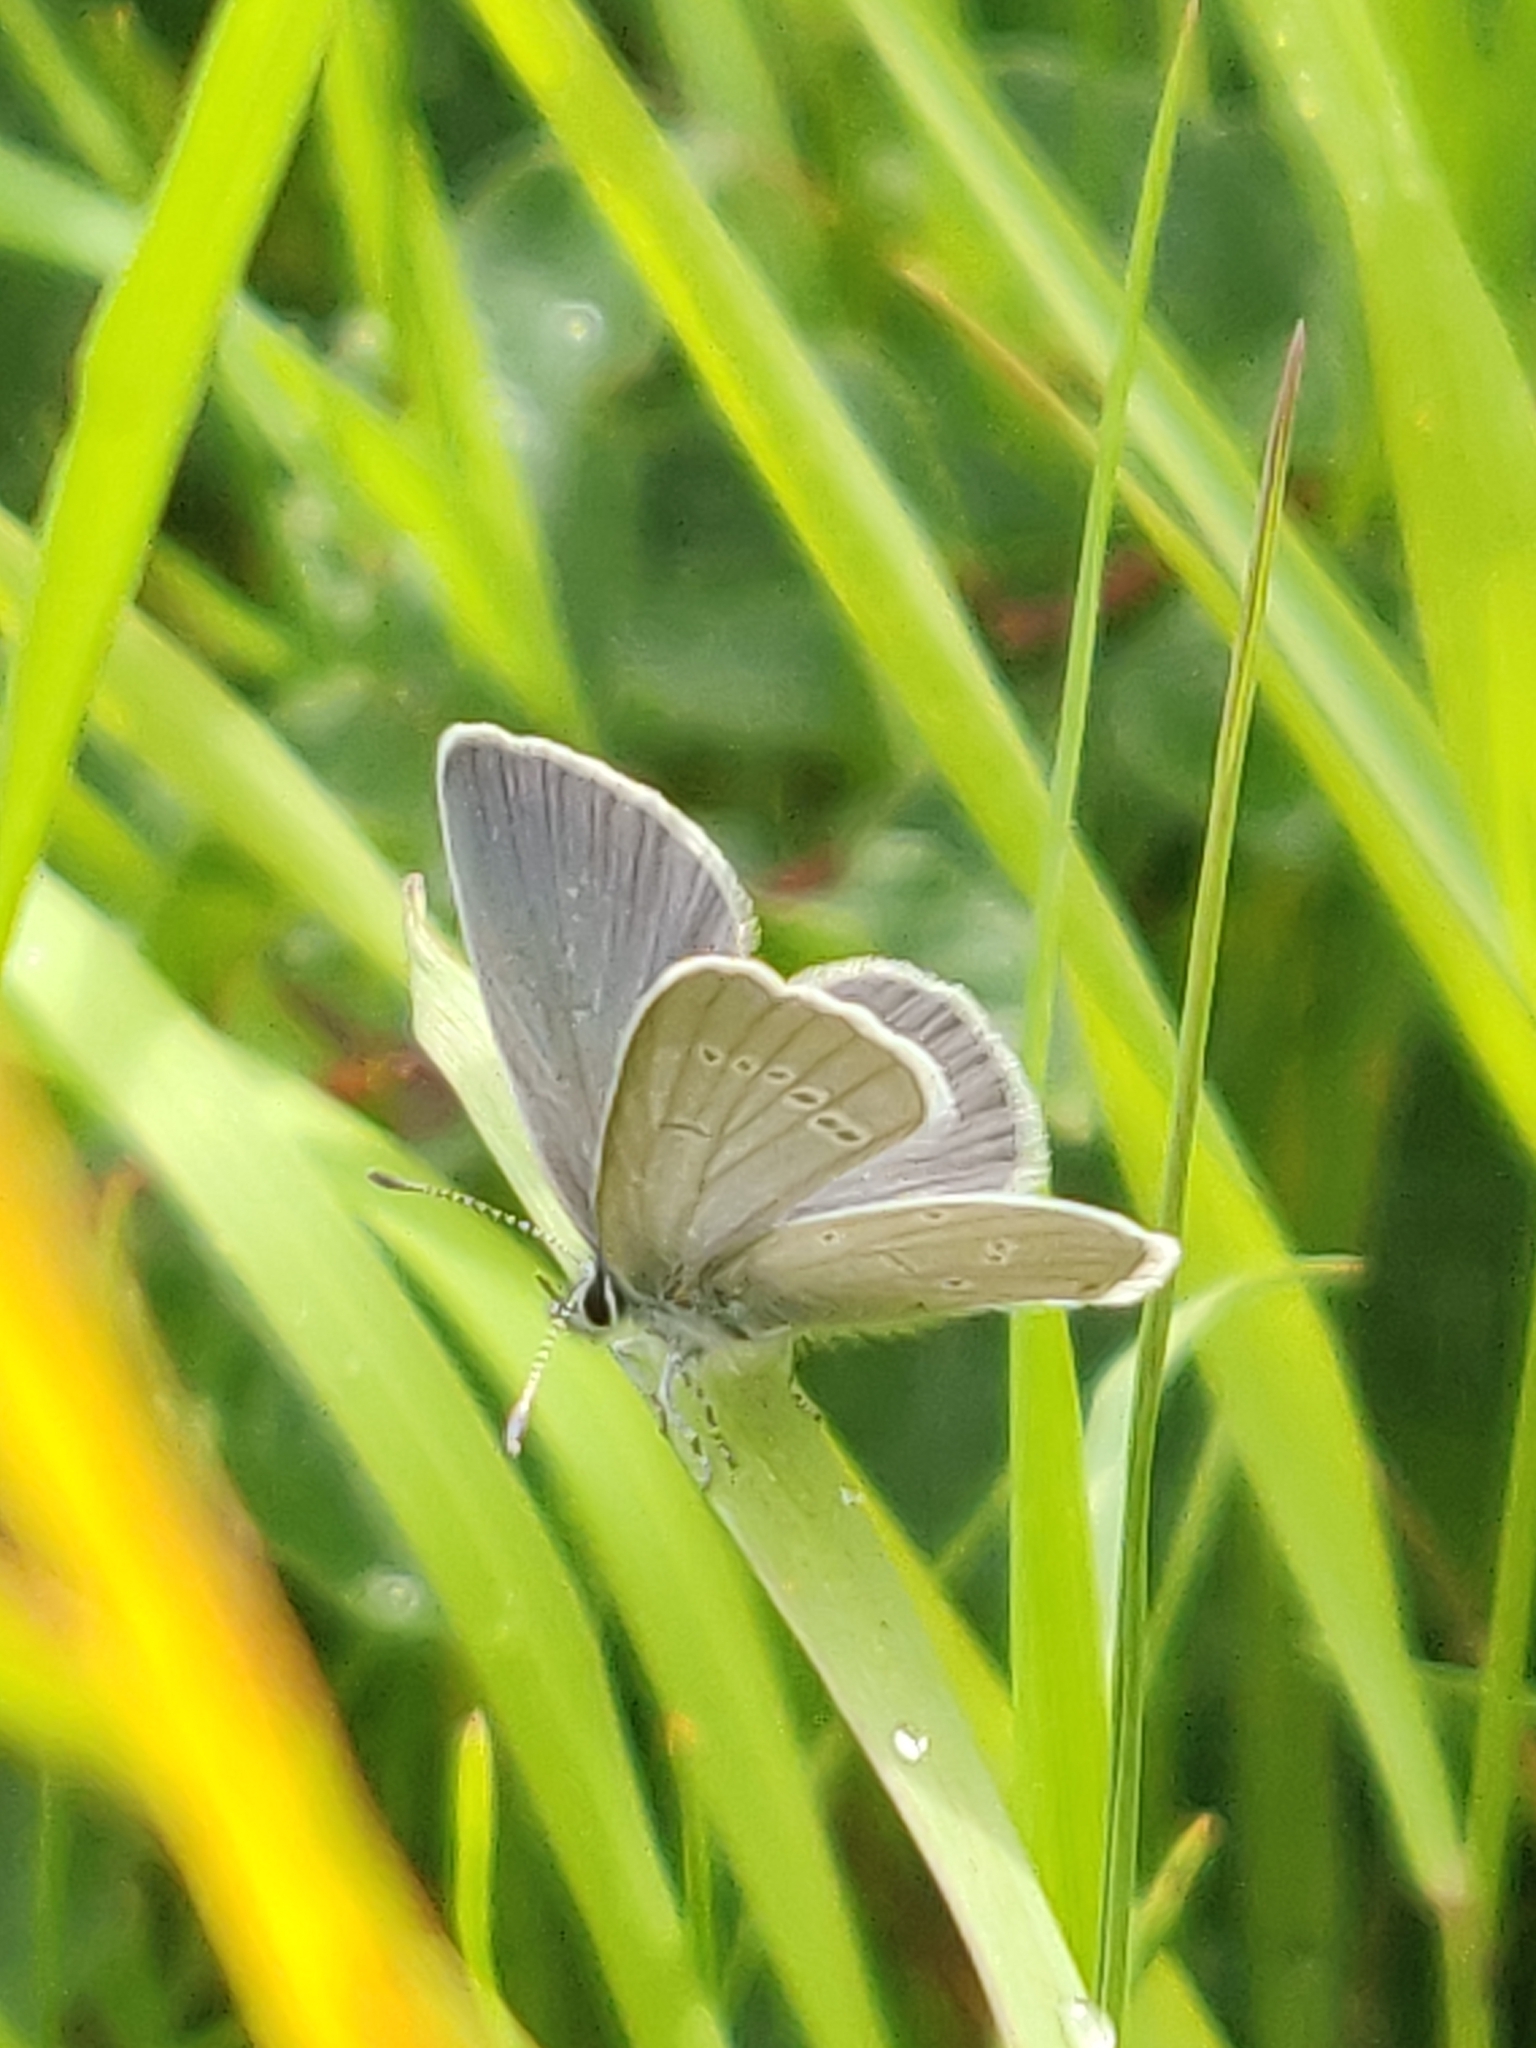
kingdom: Animalia
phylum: Arthropoda
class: Insecta
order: Lepidoptera
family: Lycaenidae
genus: Cupido
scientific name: Cupido minimus
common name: Small blue
